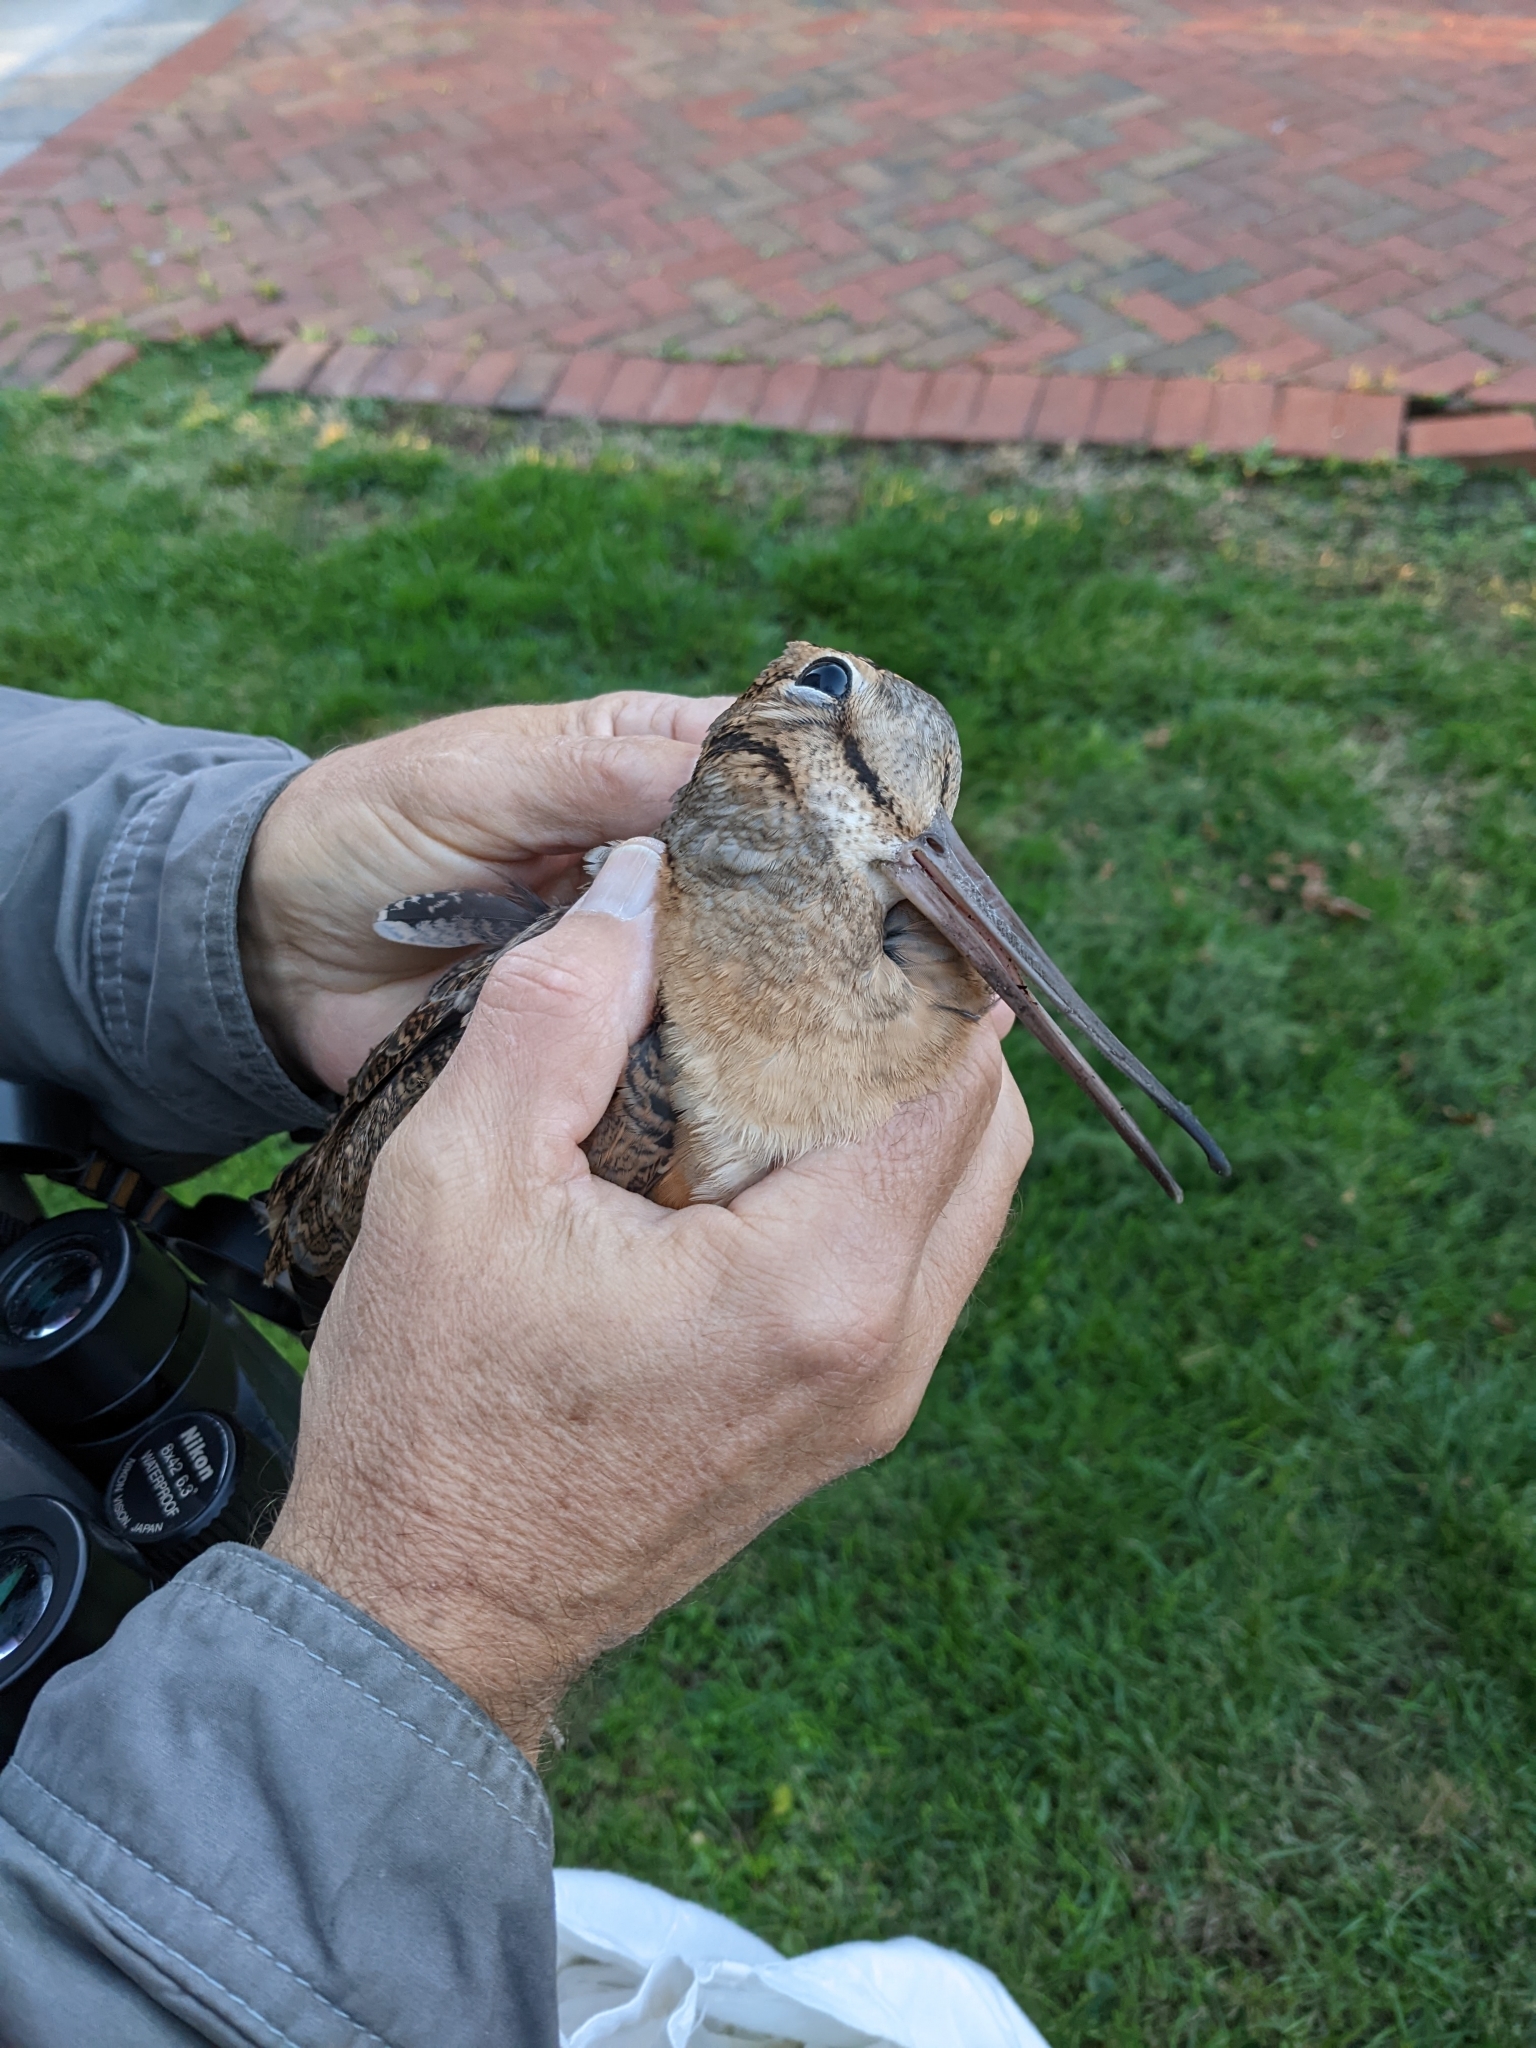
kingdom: Animalia
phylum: Chordata
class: Aves
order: Charadriiformes
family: Scolopacidae
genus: Scolopax
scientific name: Scolopax minor
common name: American woodcock
